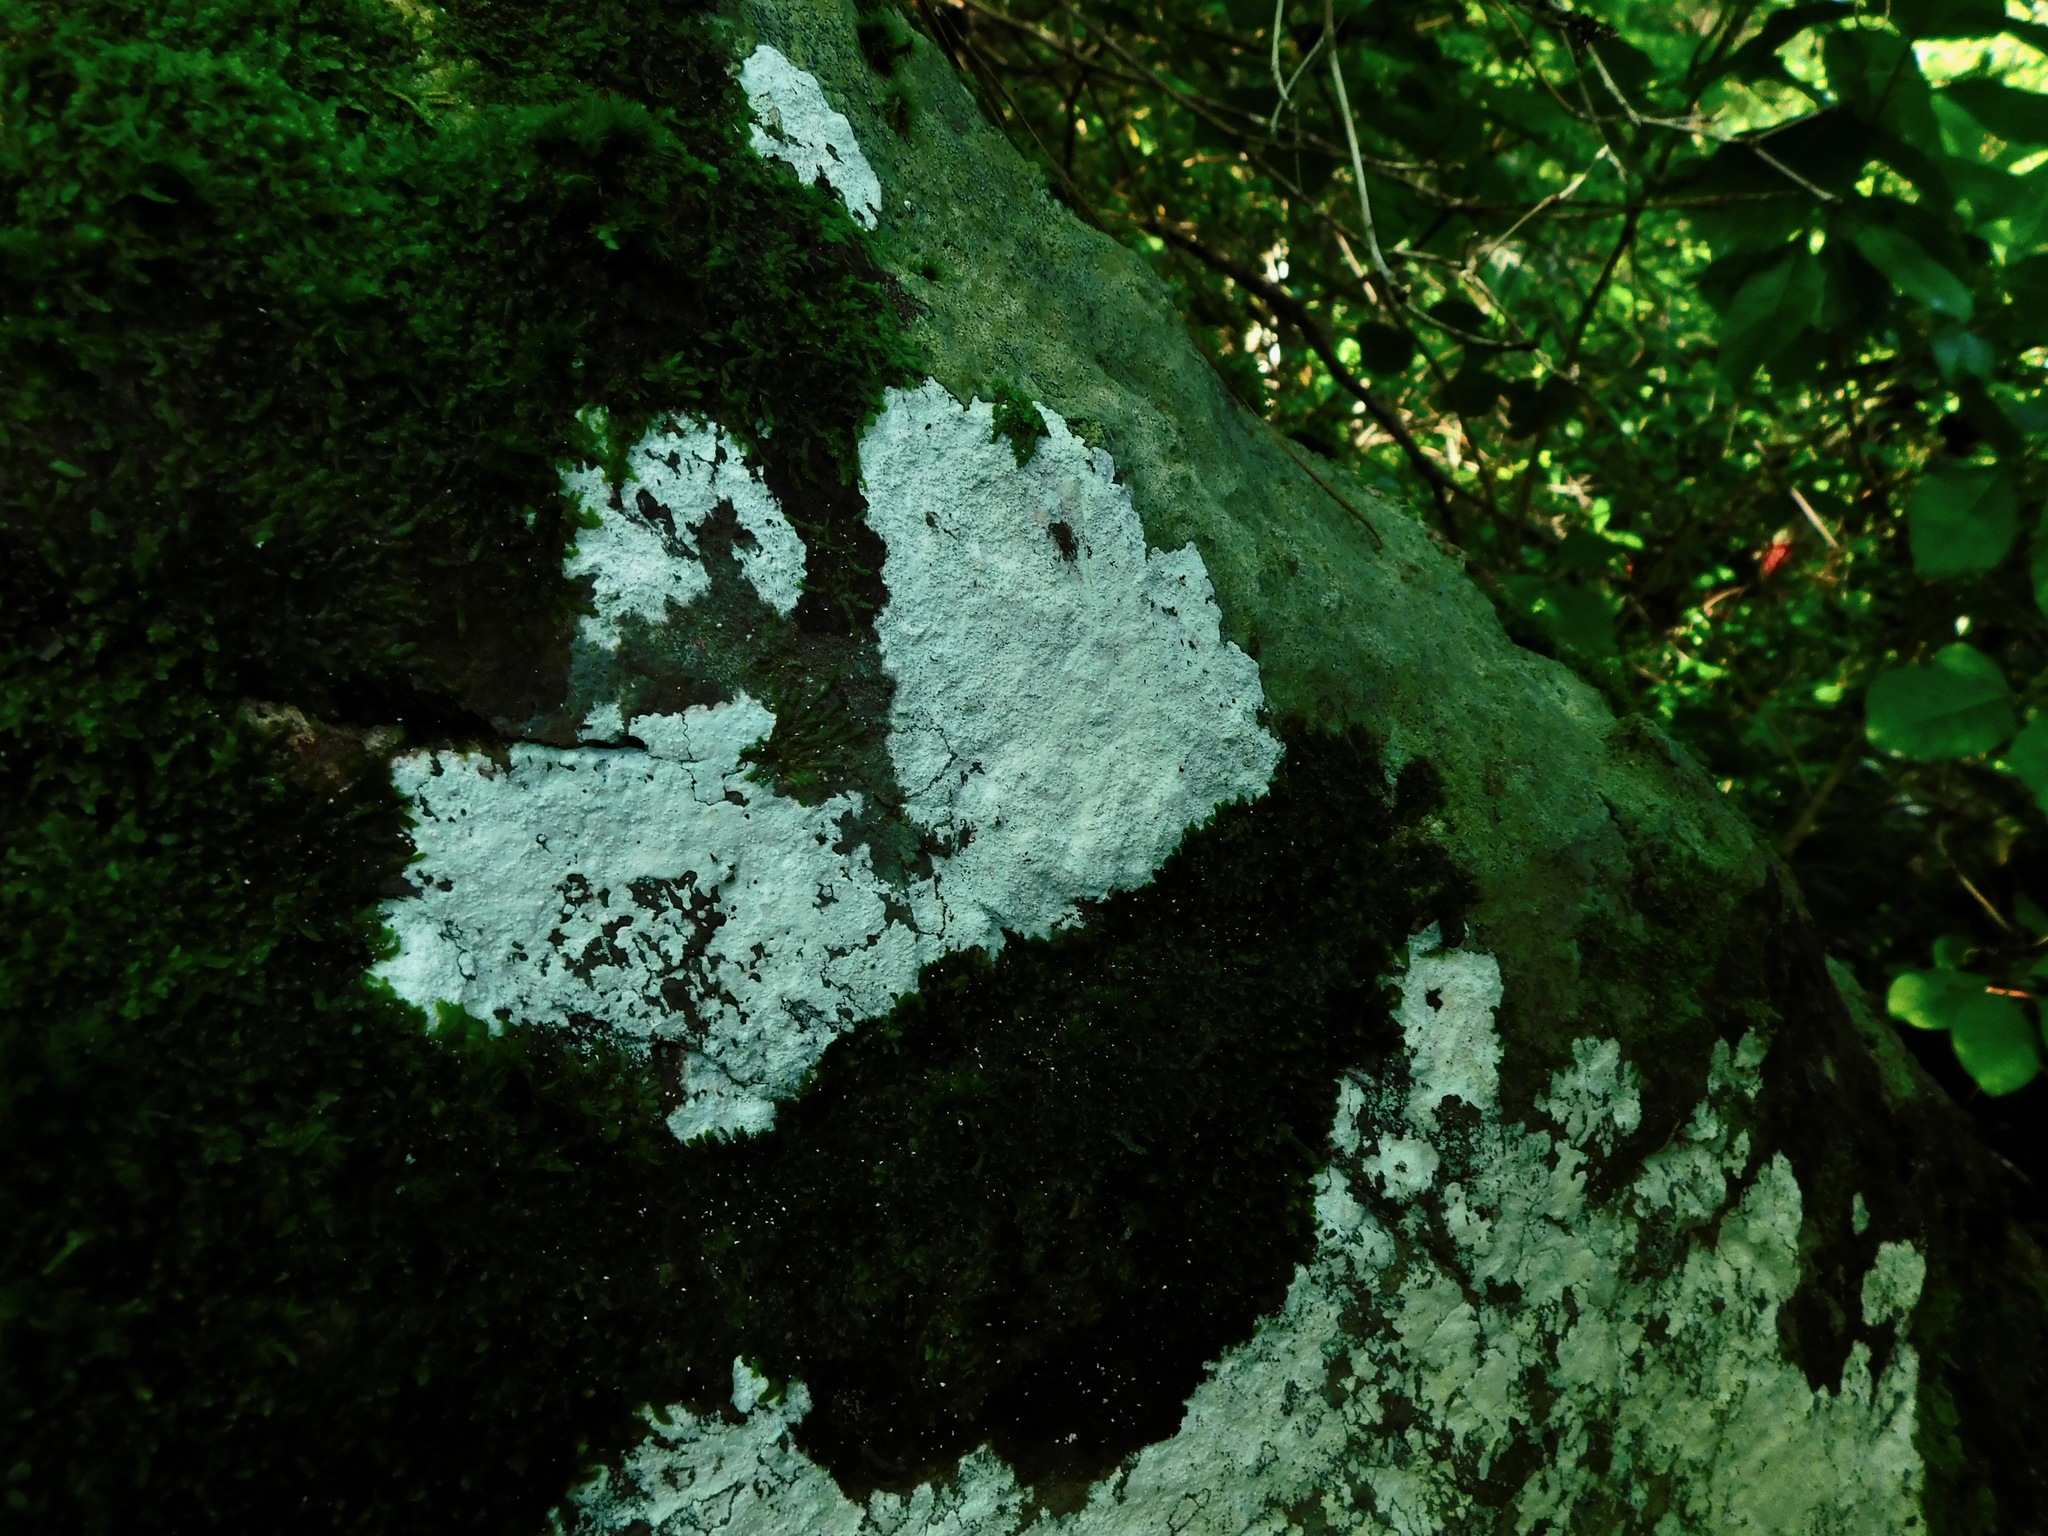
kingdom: Fungi
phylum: Ascomycota
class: Lecanoromycetes
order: Ostropales
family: Phlyctidaceae
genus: Phlyctis
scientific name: Phlyctis petraea
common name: Eggshell rock blaze
